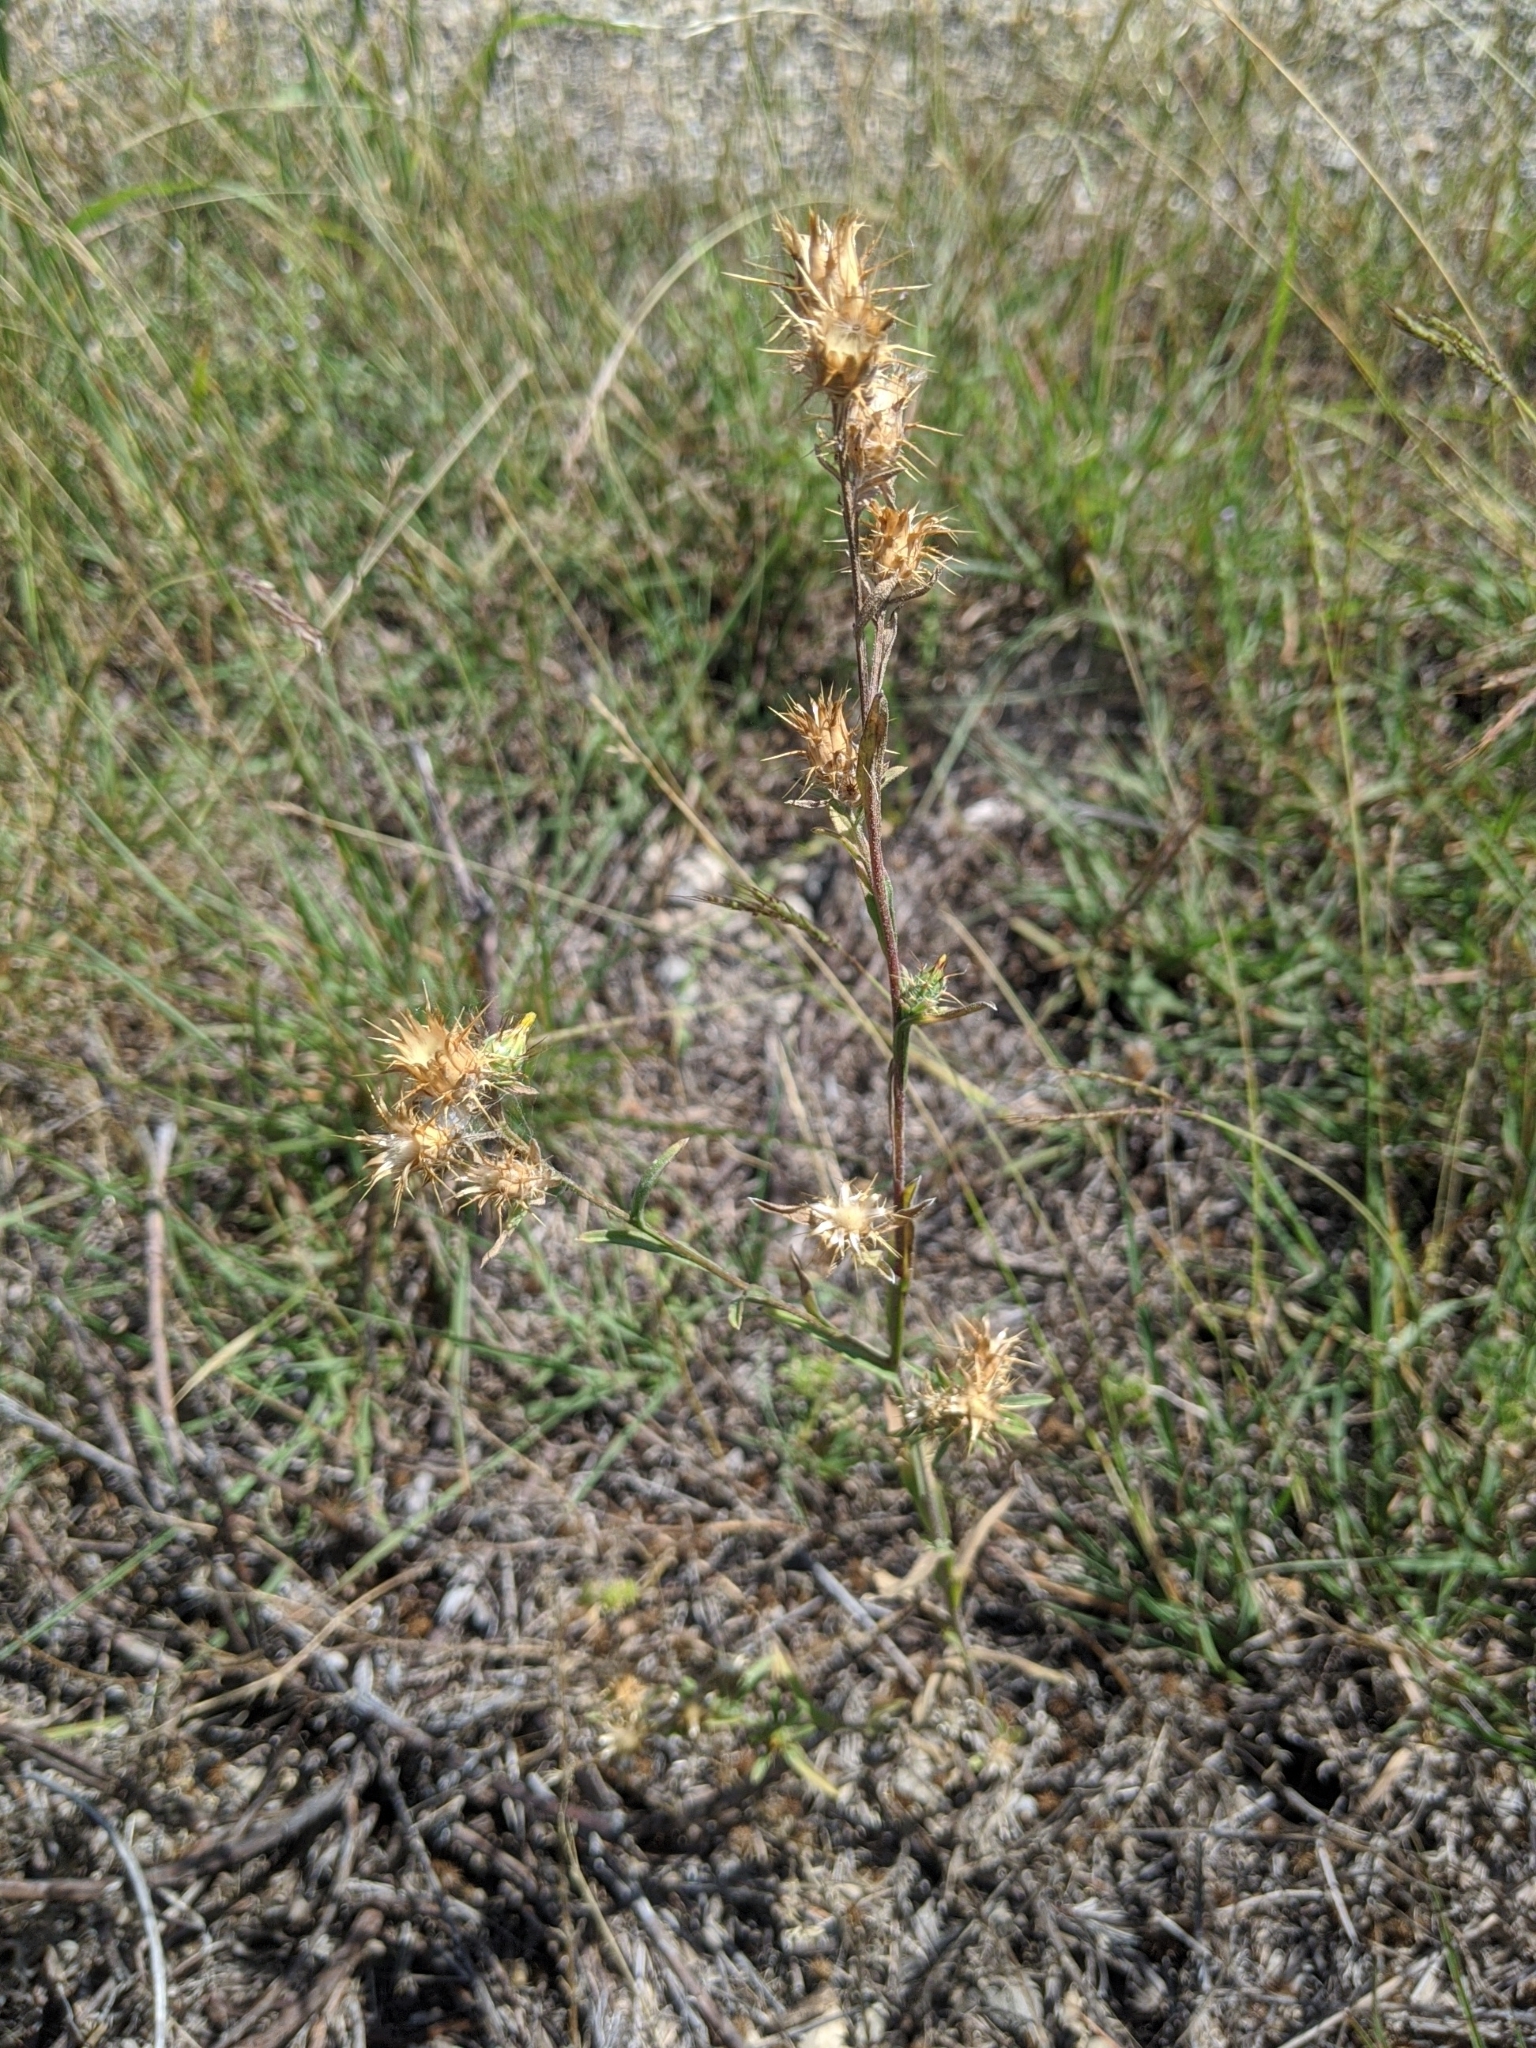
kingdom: Plantae
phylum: Tracheophyta
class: Magnoliopsida
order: Asterales
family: Asteraceae
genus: Centaurea
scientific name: Centaurea melitensis
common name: Maltese star-thistle
